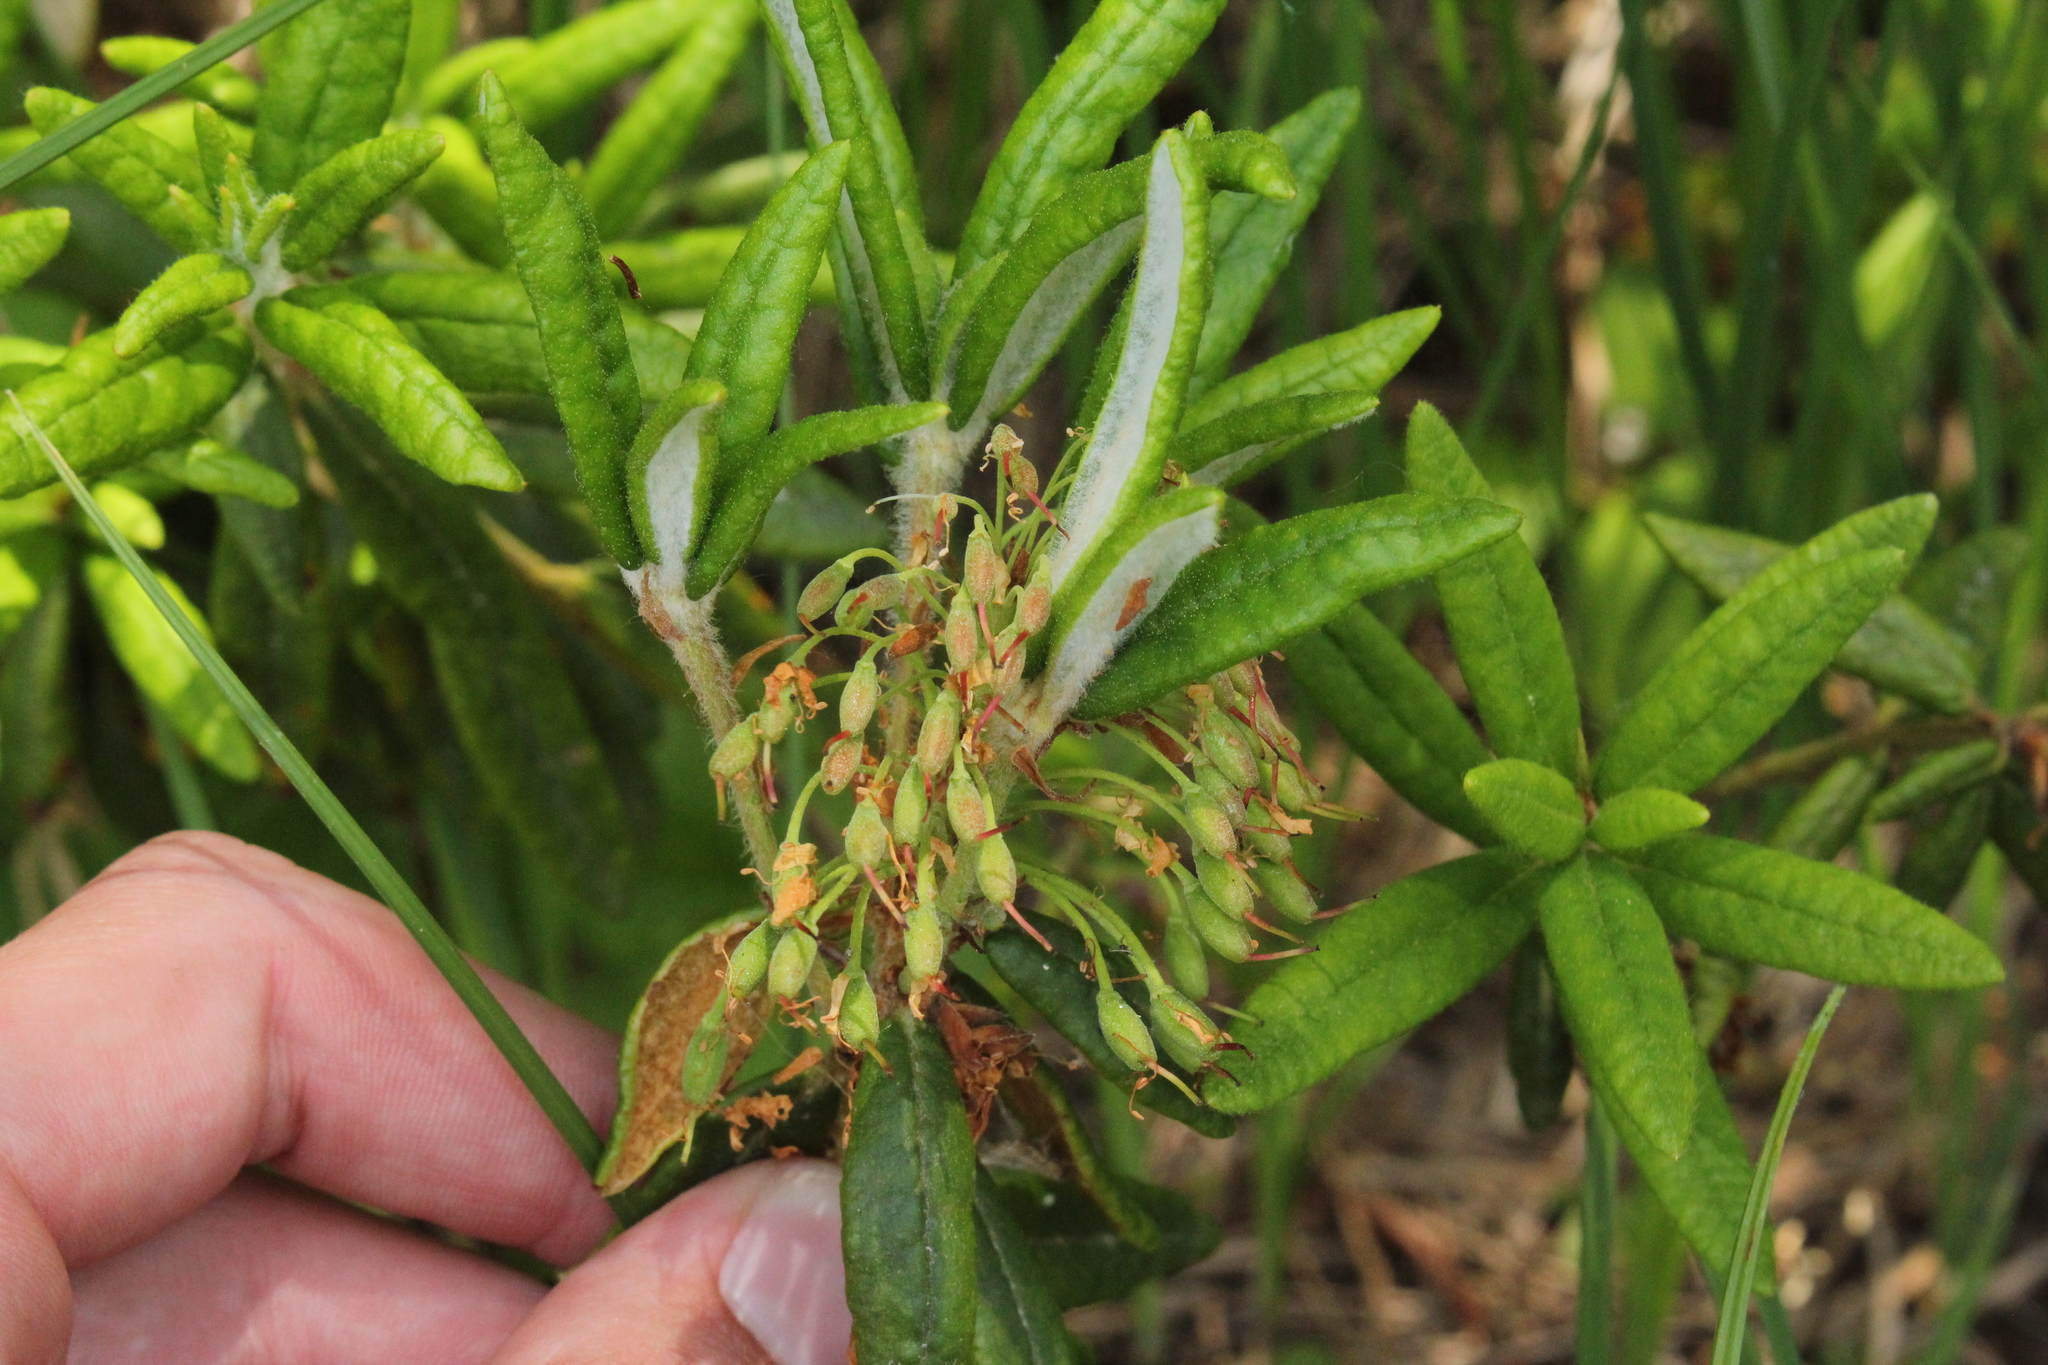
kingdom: Plantae
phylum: Tracheophyta
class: Magnoliopsida
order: Ericales
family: Ericaceae
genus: Rhododendron
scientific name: Rhododendron groenlandicum
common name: Bog labrador tea
